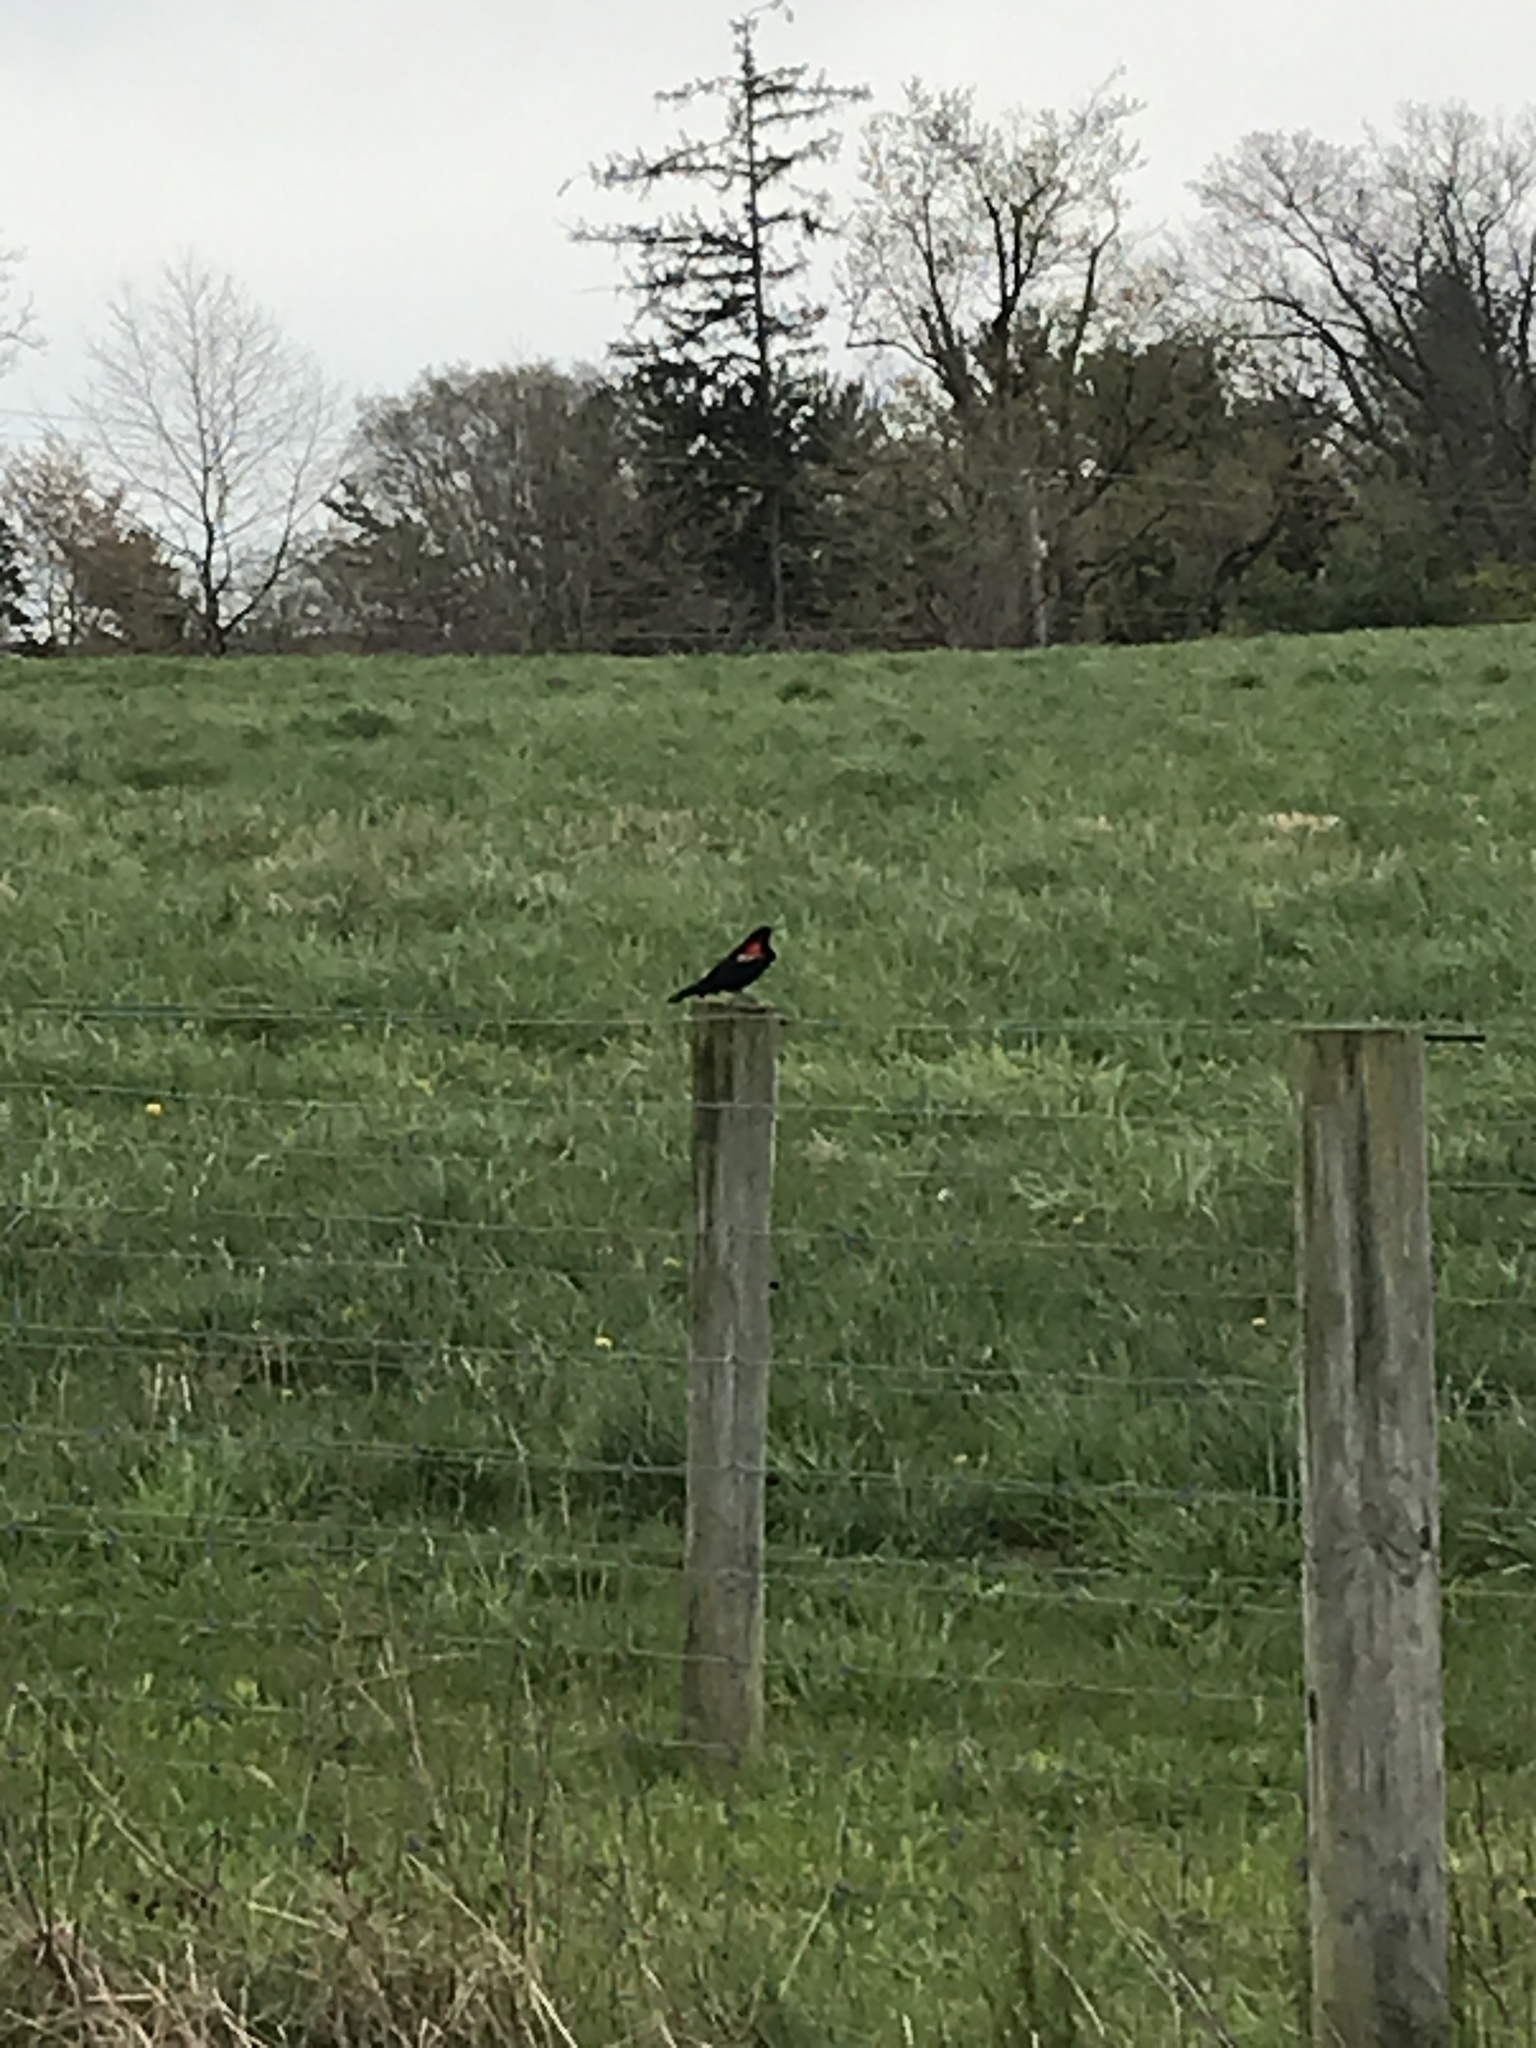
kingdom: Animalia
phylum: Chordata
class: Aves
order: Passeriformes
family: Icteridae
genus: Agelaius
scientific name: Agelaius phoeniceus
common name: Red-winged blackbird
